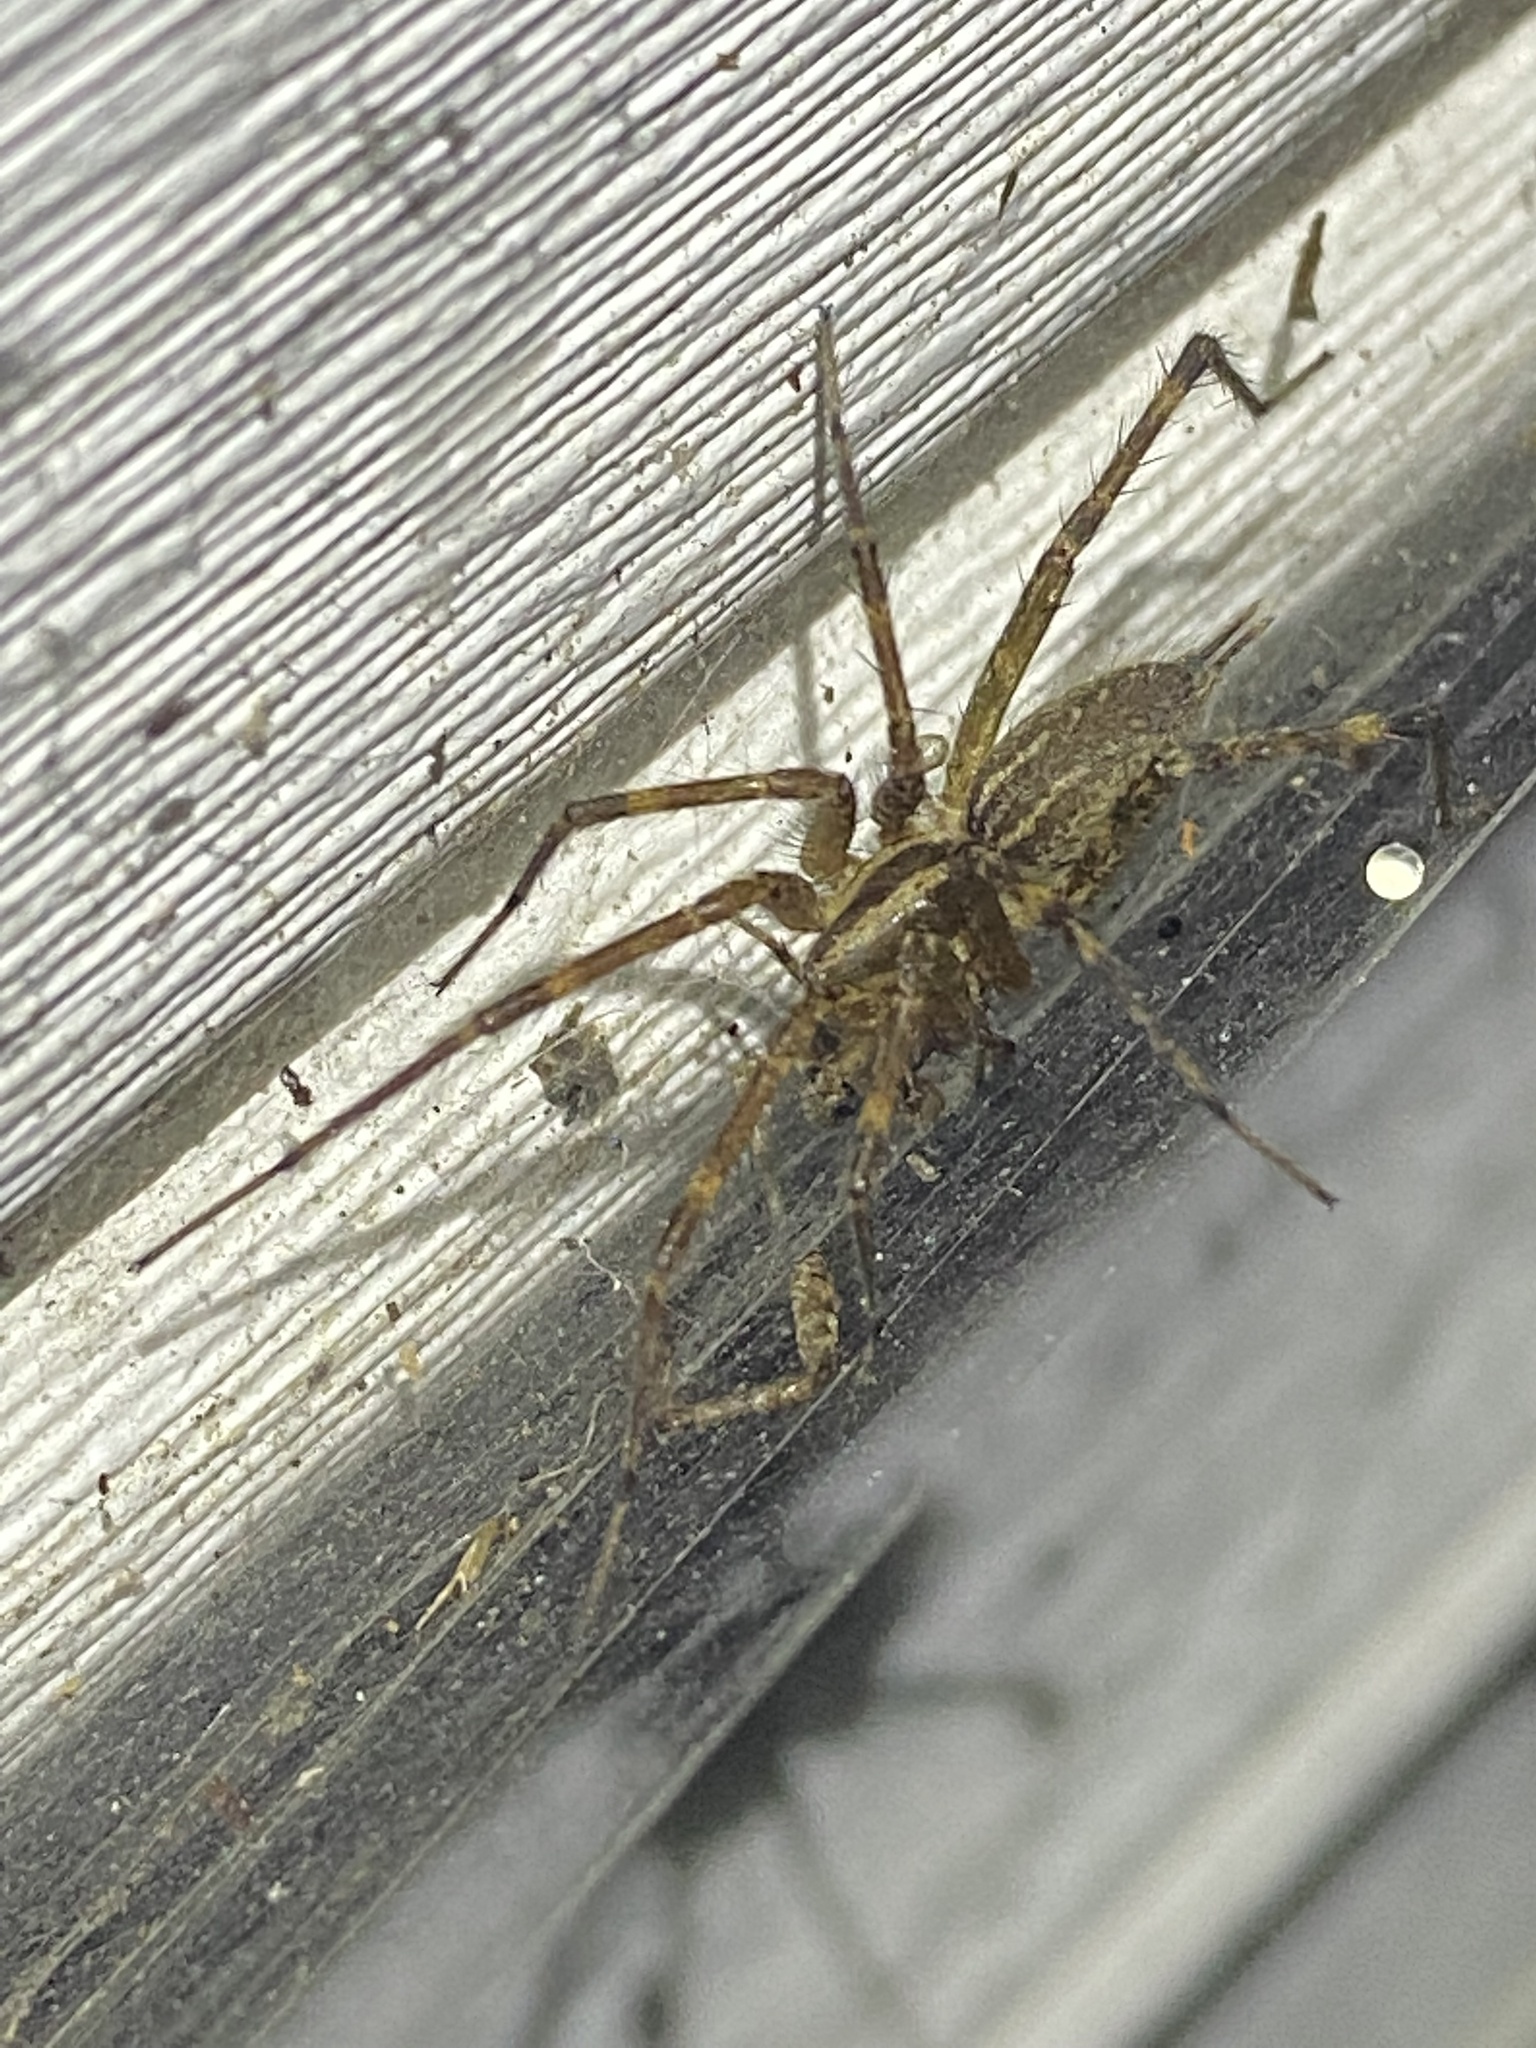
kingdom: Animalia
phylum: Arthropoda
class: Arachnida
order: Araneae
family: Agelenidae
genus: Agelenopsis
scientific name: Agelenopsis
